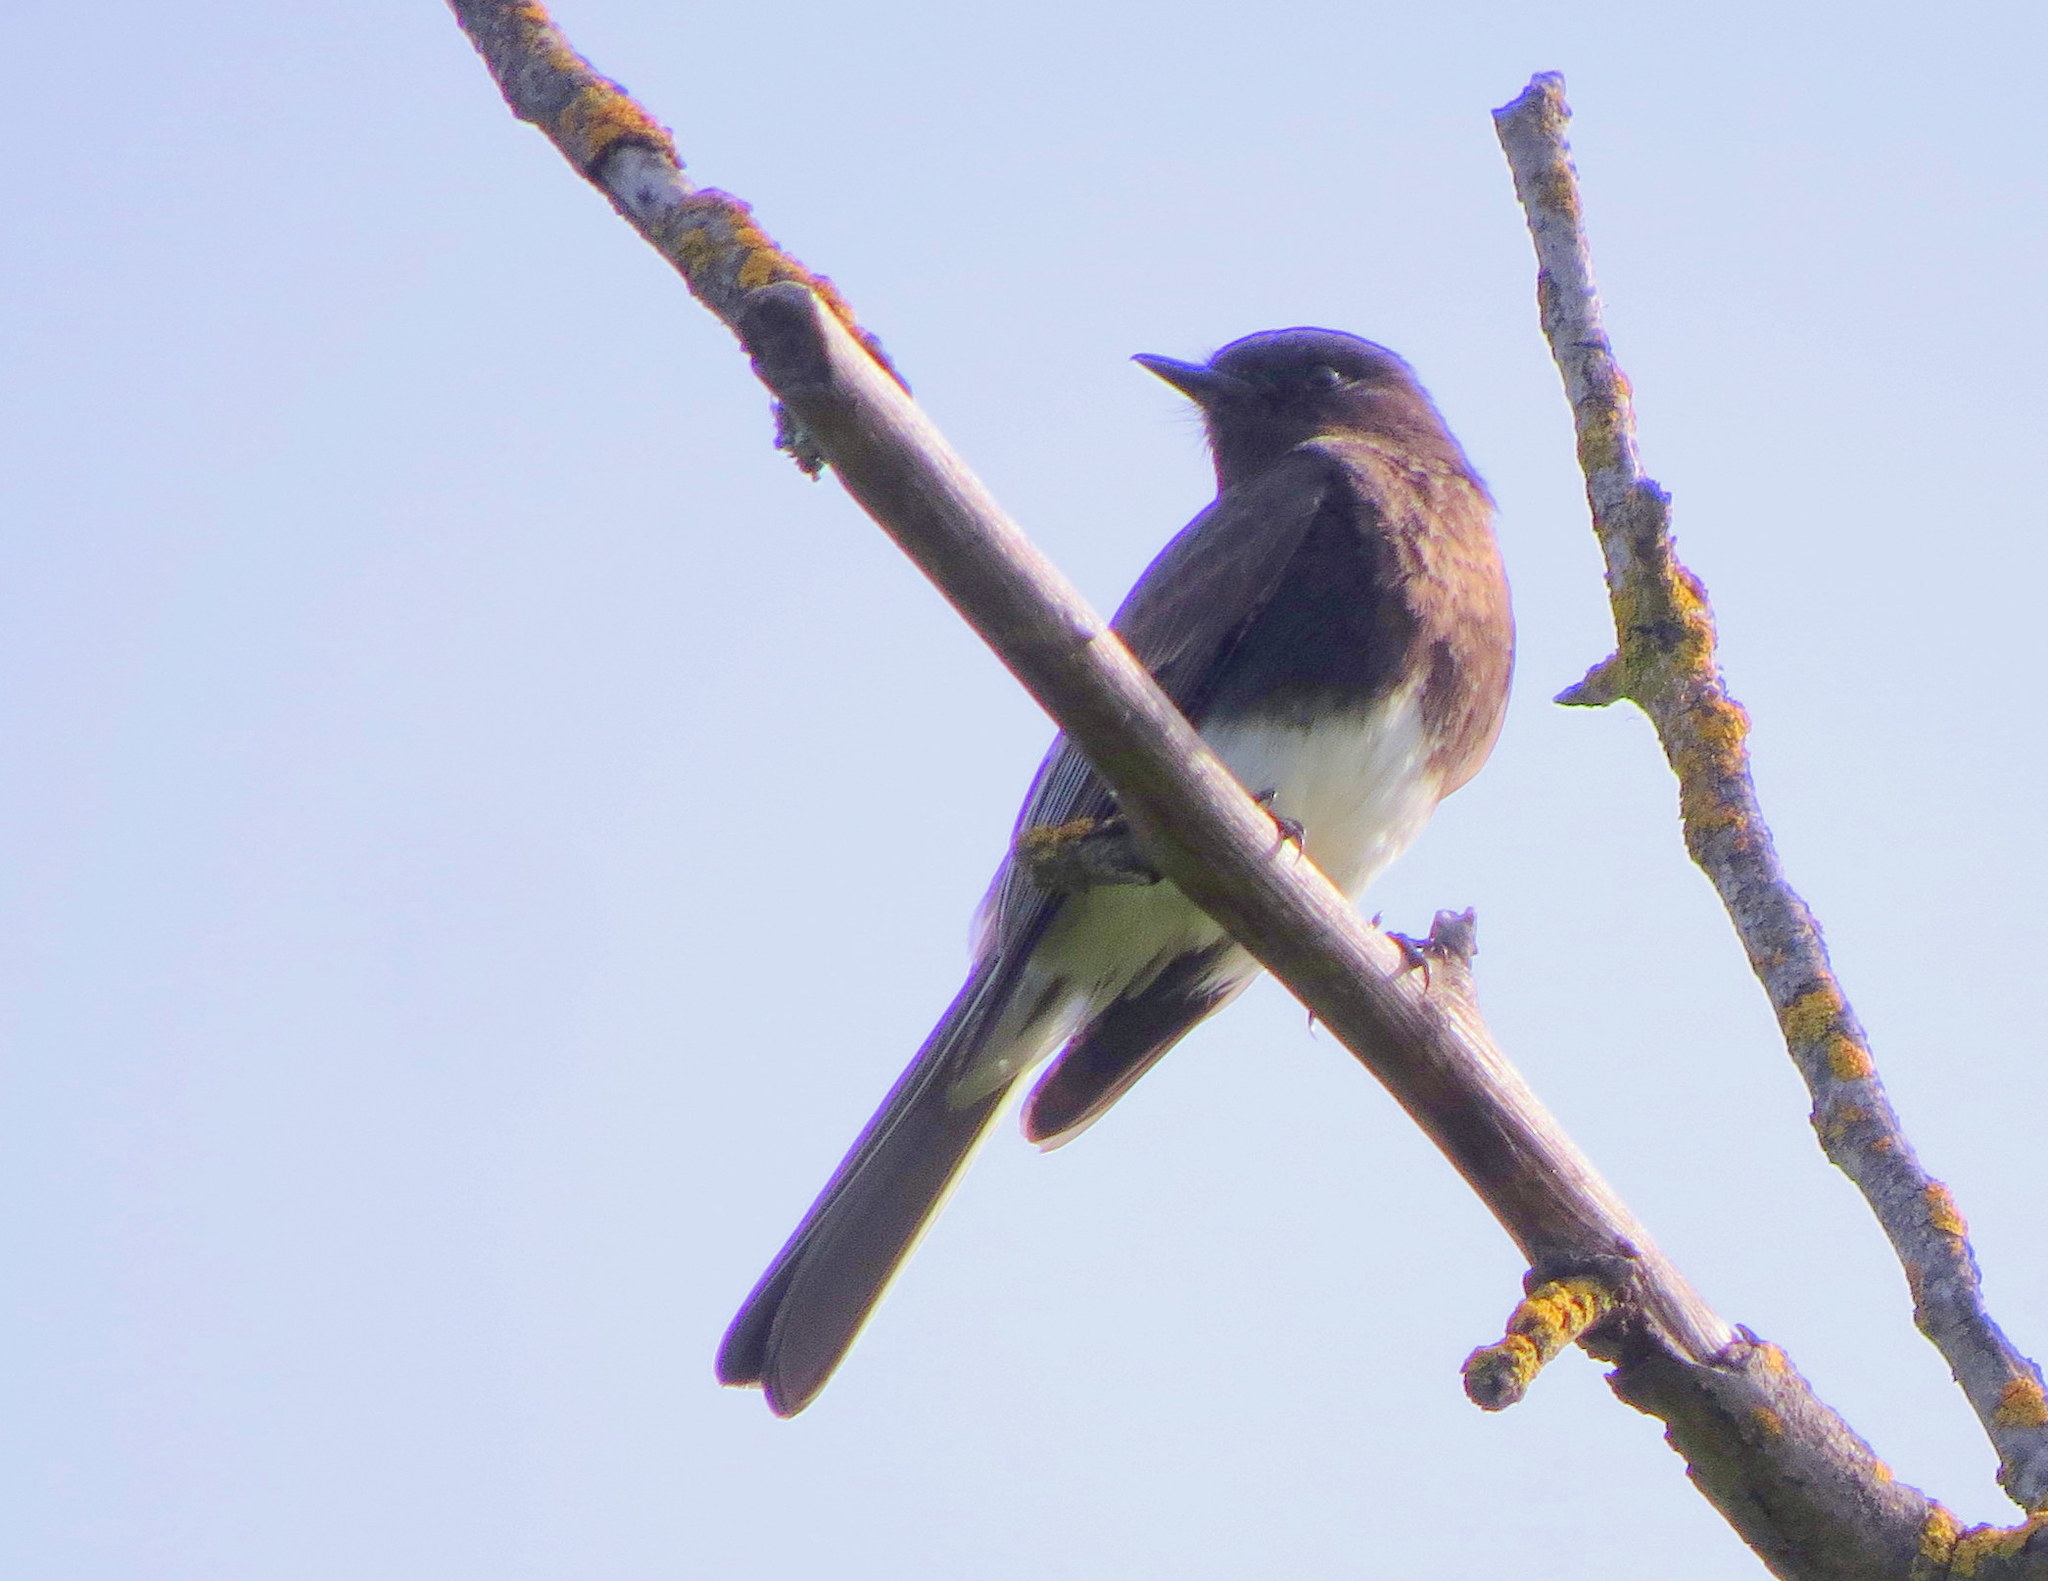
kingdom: Animalia
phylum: Chordata
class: Aves
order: Passeriformes
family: Tyrannidae
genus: Sayornis
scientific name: Sayornis nigricans
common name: Black phoebe
